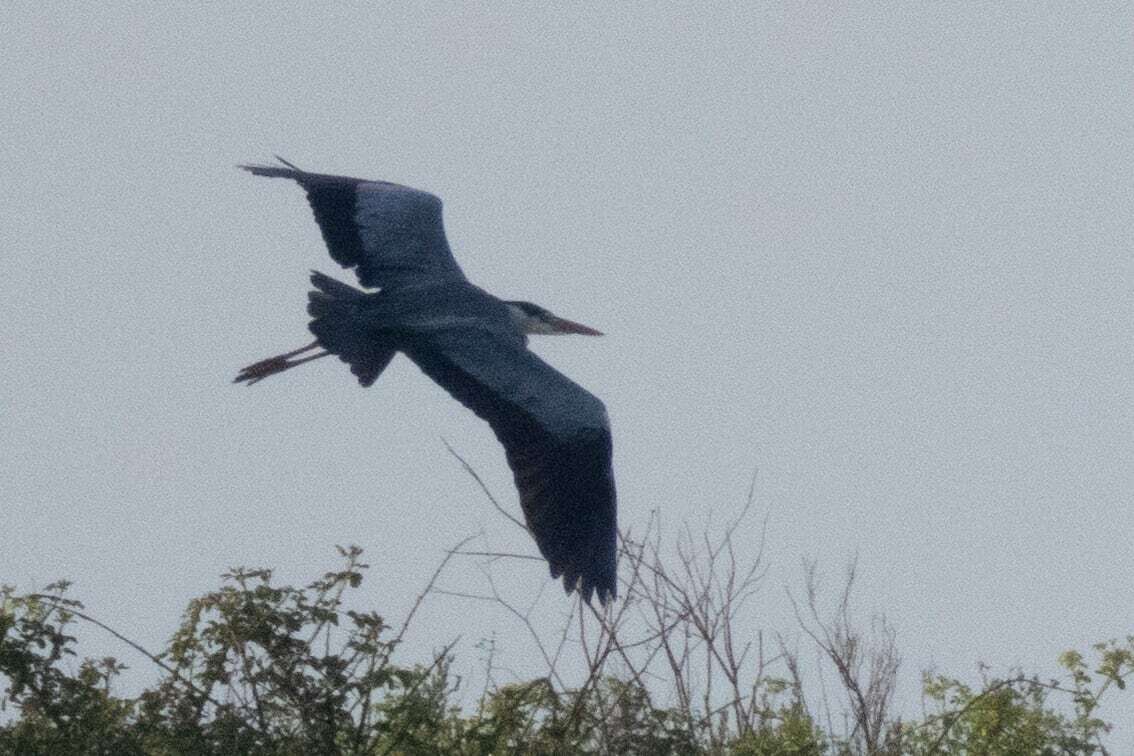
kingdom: Animalia
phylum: Chordata
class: Aves
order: Pelecaniformes
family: Ardeidae
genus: Ardea
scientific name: Ardea cinerea
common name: Grey heron
